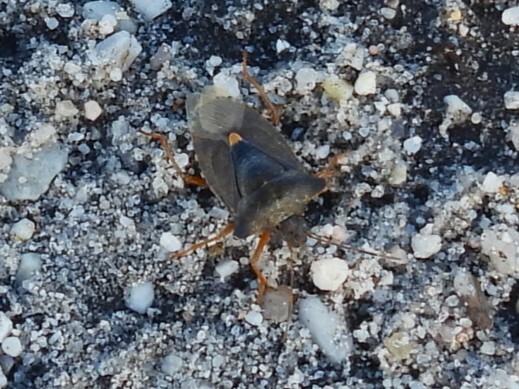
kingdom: Animalia
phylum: Arthropoda
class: Insecta
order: Hemiptera
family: Pentatomidae
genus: Pentatoma
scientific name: Pentatoma rufipes
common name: Forest bug
